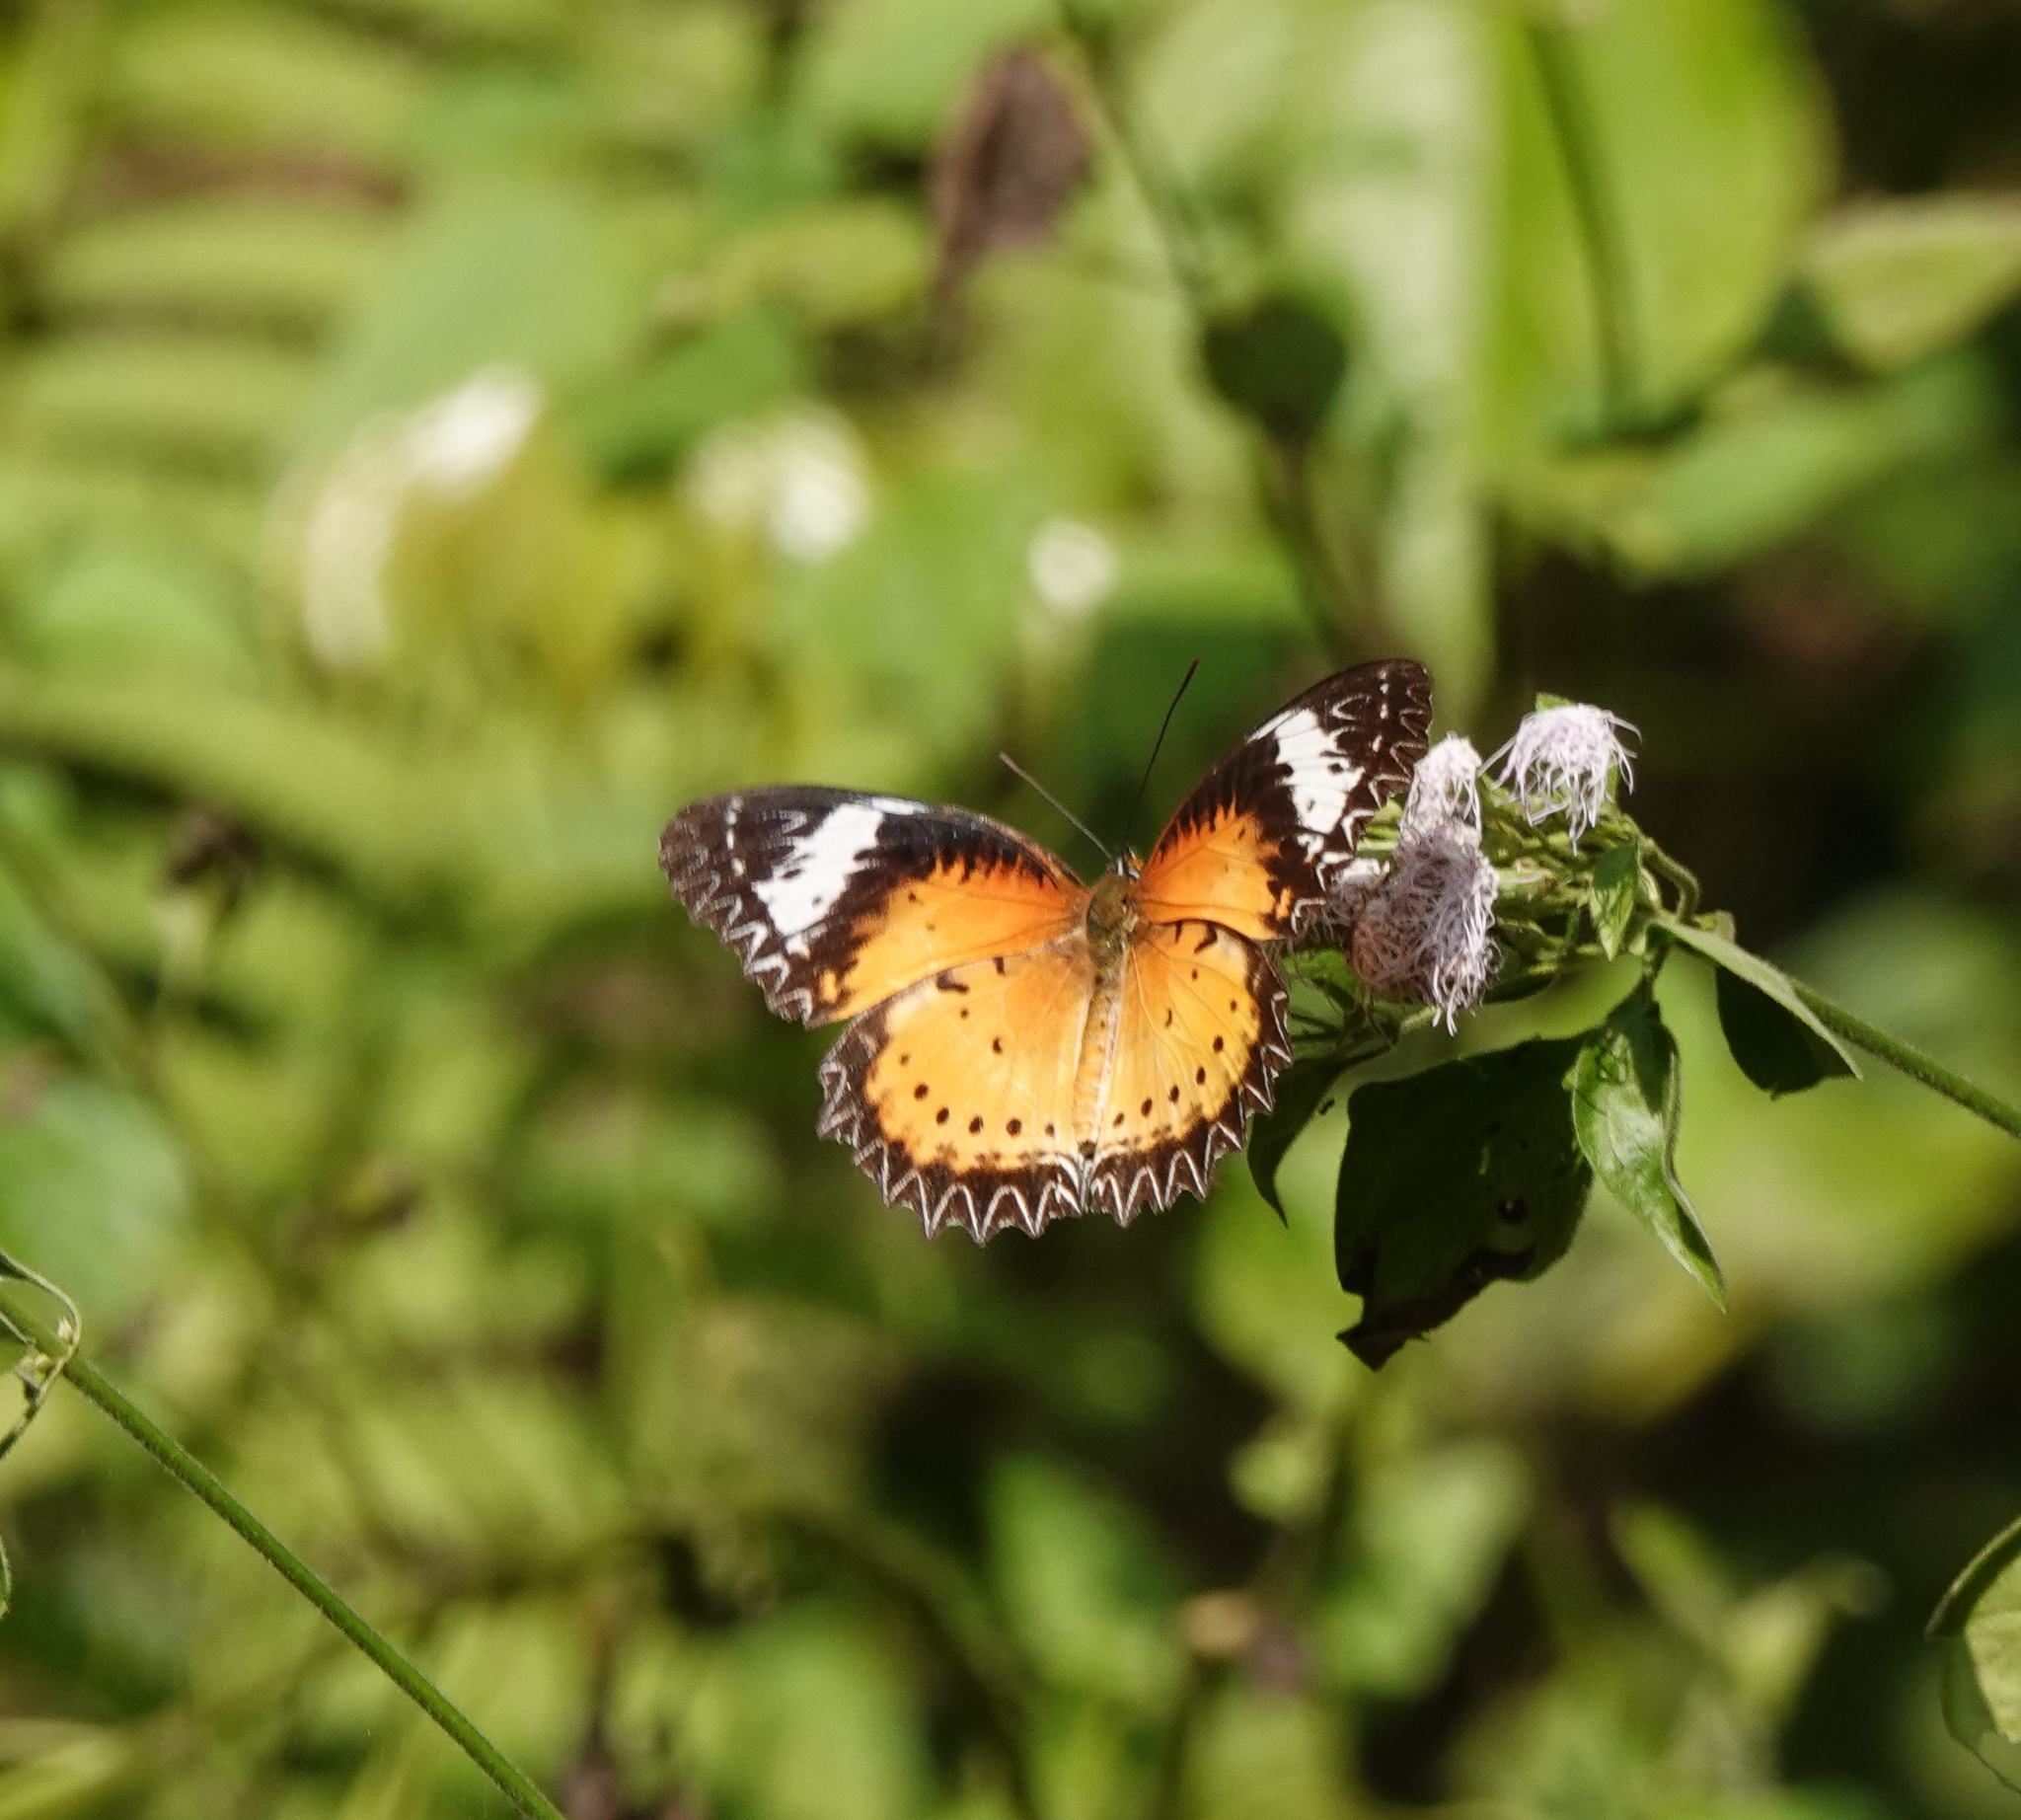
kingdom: Animalia
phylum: Arthropoda
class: Insecta
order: Lepidoptera
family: Nymphalidae
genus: Cethosia
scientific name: Cethosia cyane
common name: Leopard lacewing butterfly
